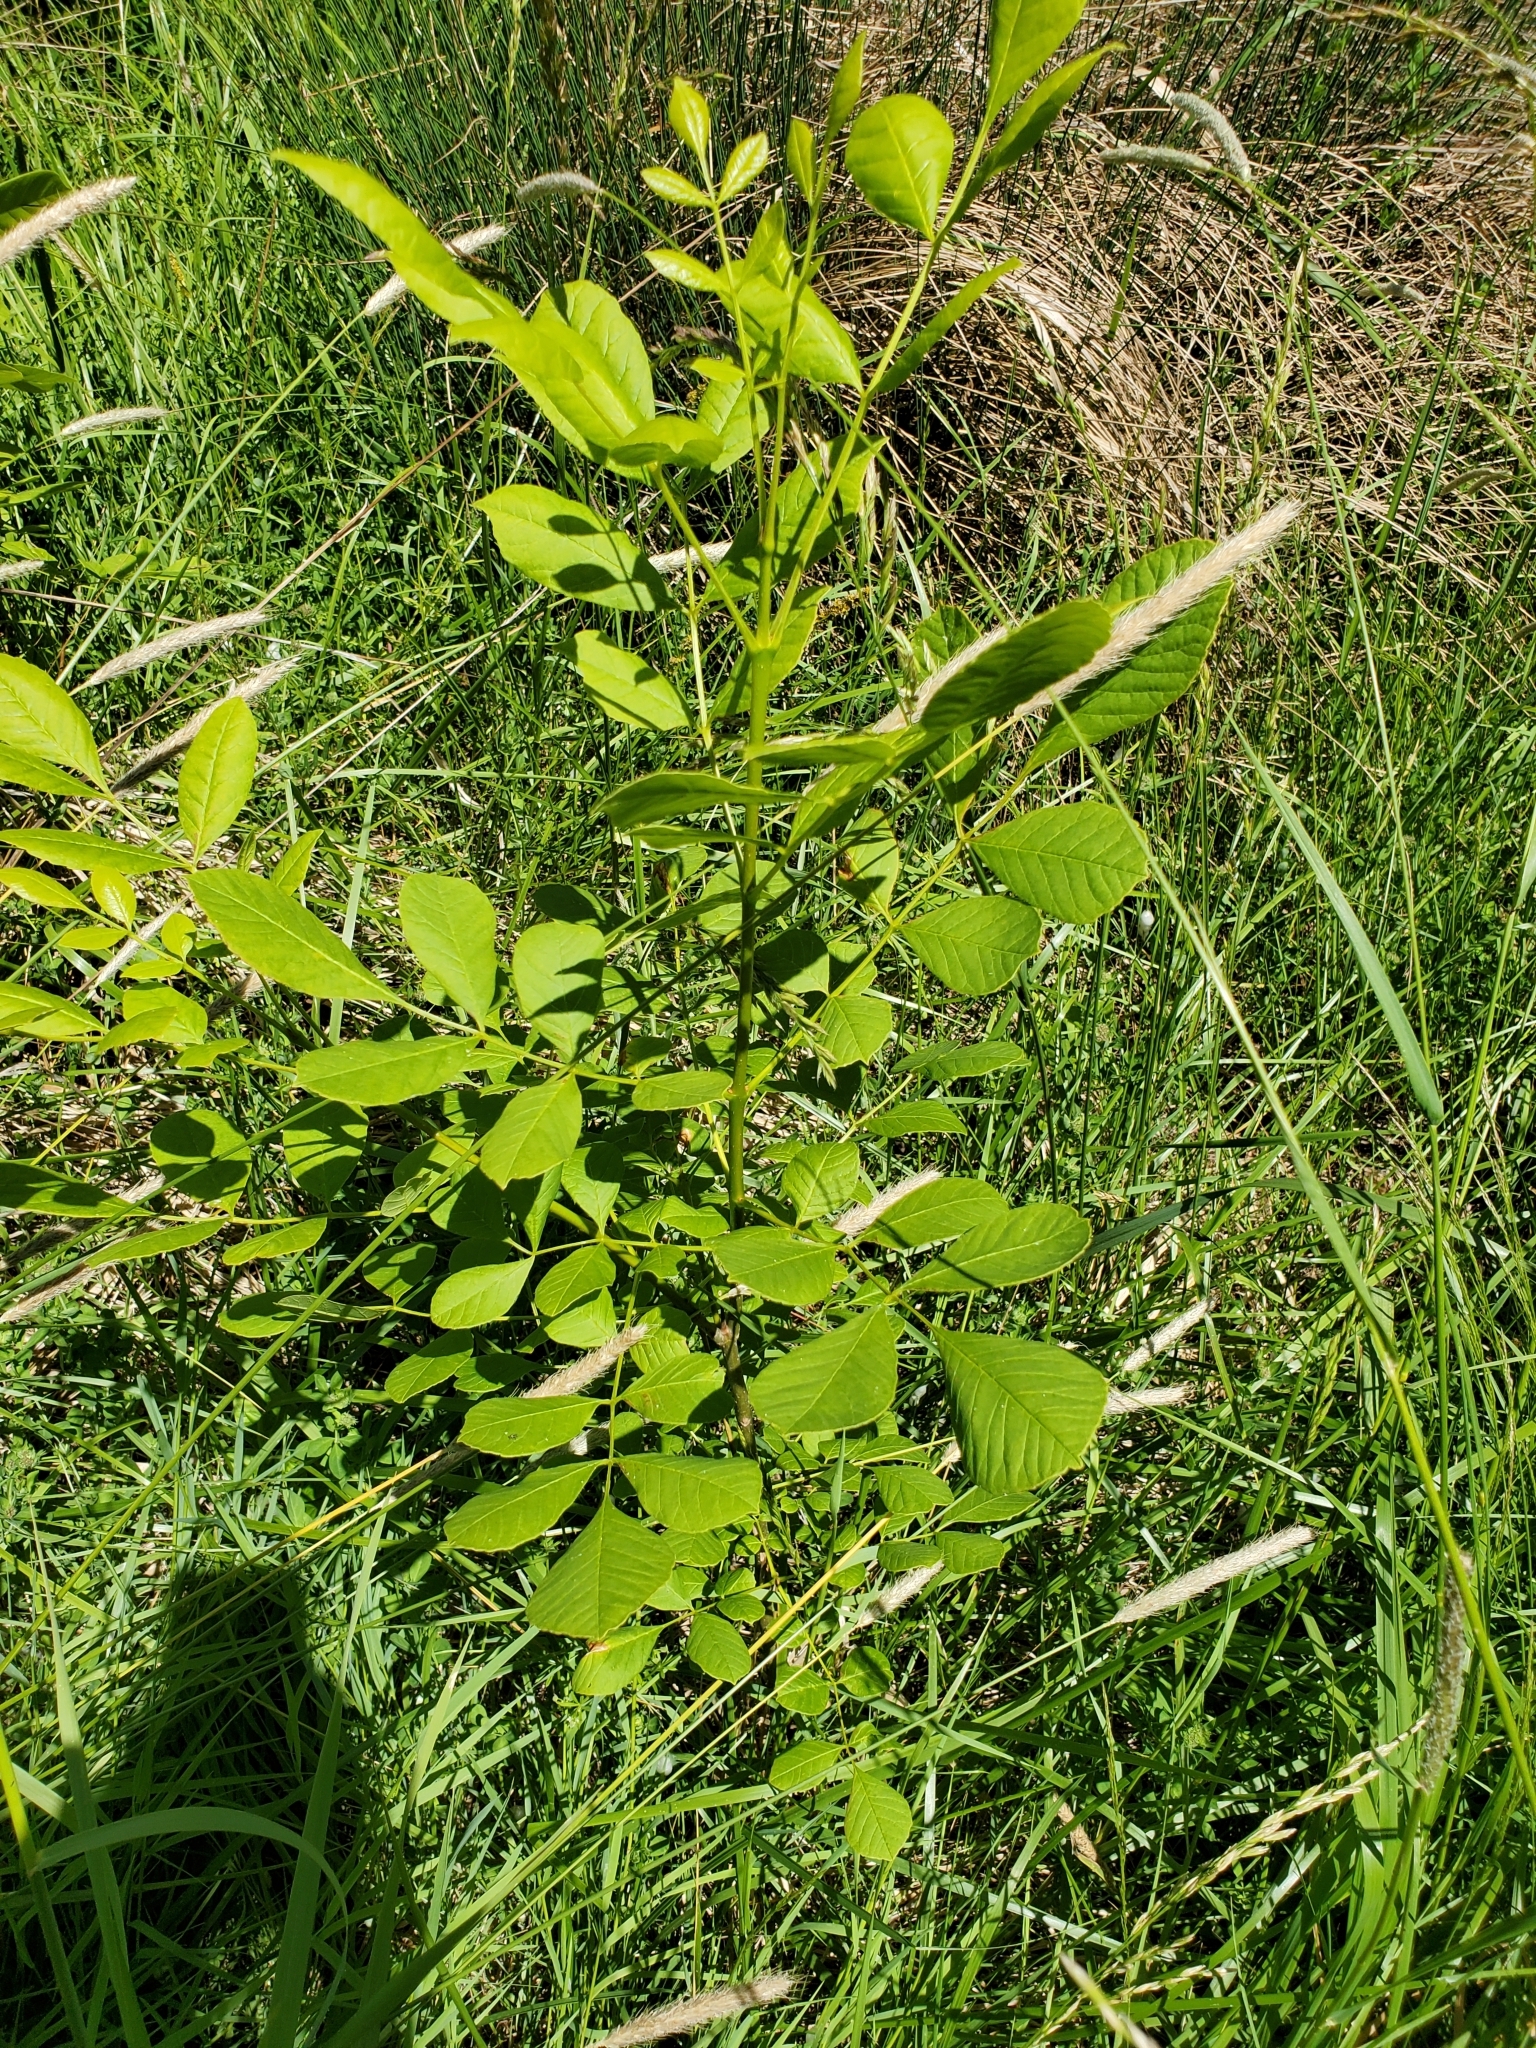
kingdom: Plantae
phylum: Tracheophyta
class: Magnoliopsida
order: Lamiales
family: Oleaceae
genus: Fraxinus
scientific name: Fraxinus latifolia
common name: Oregon ash
